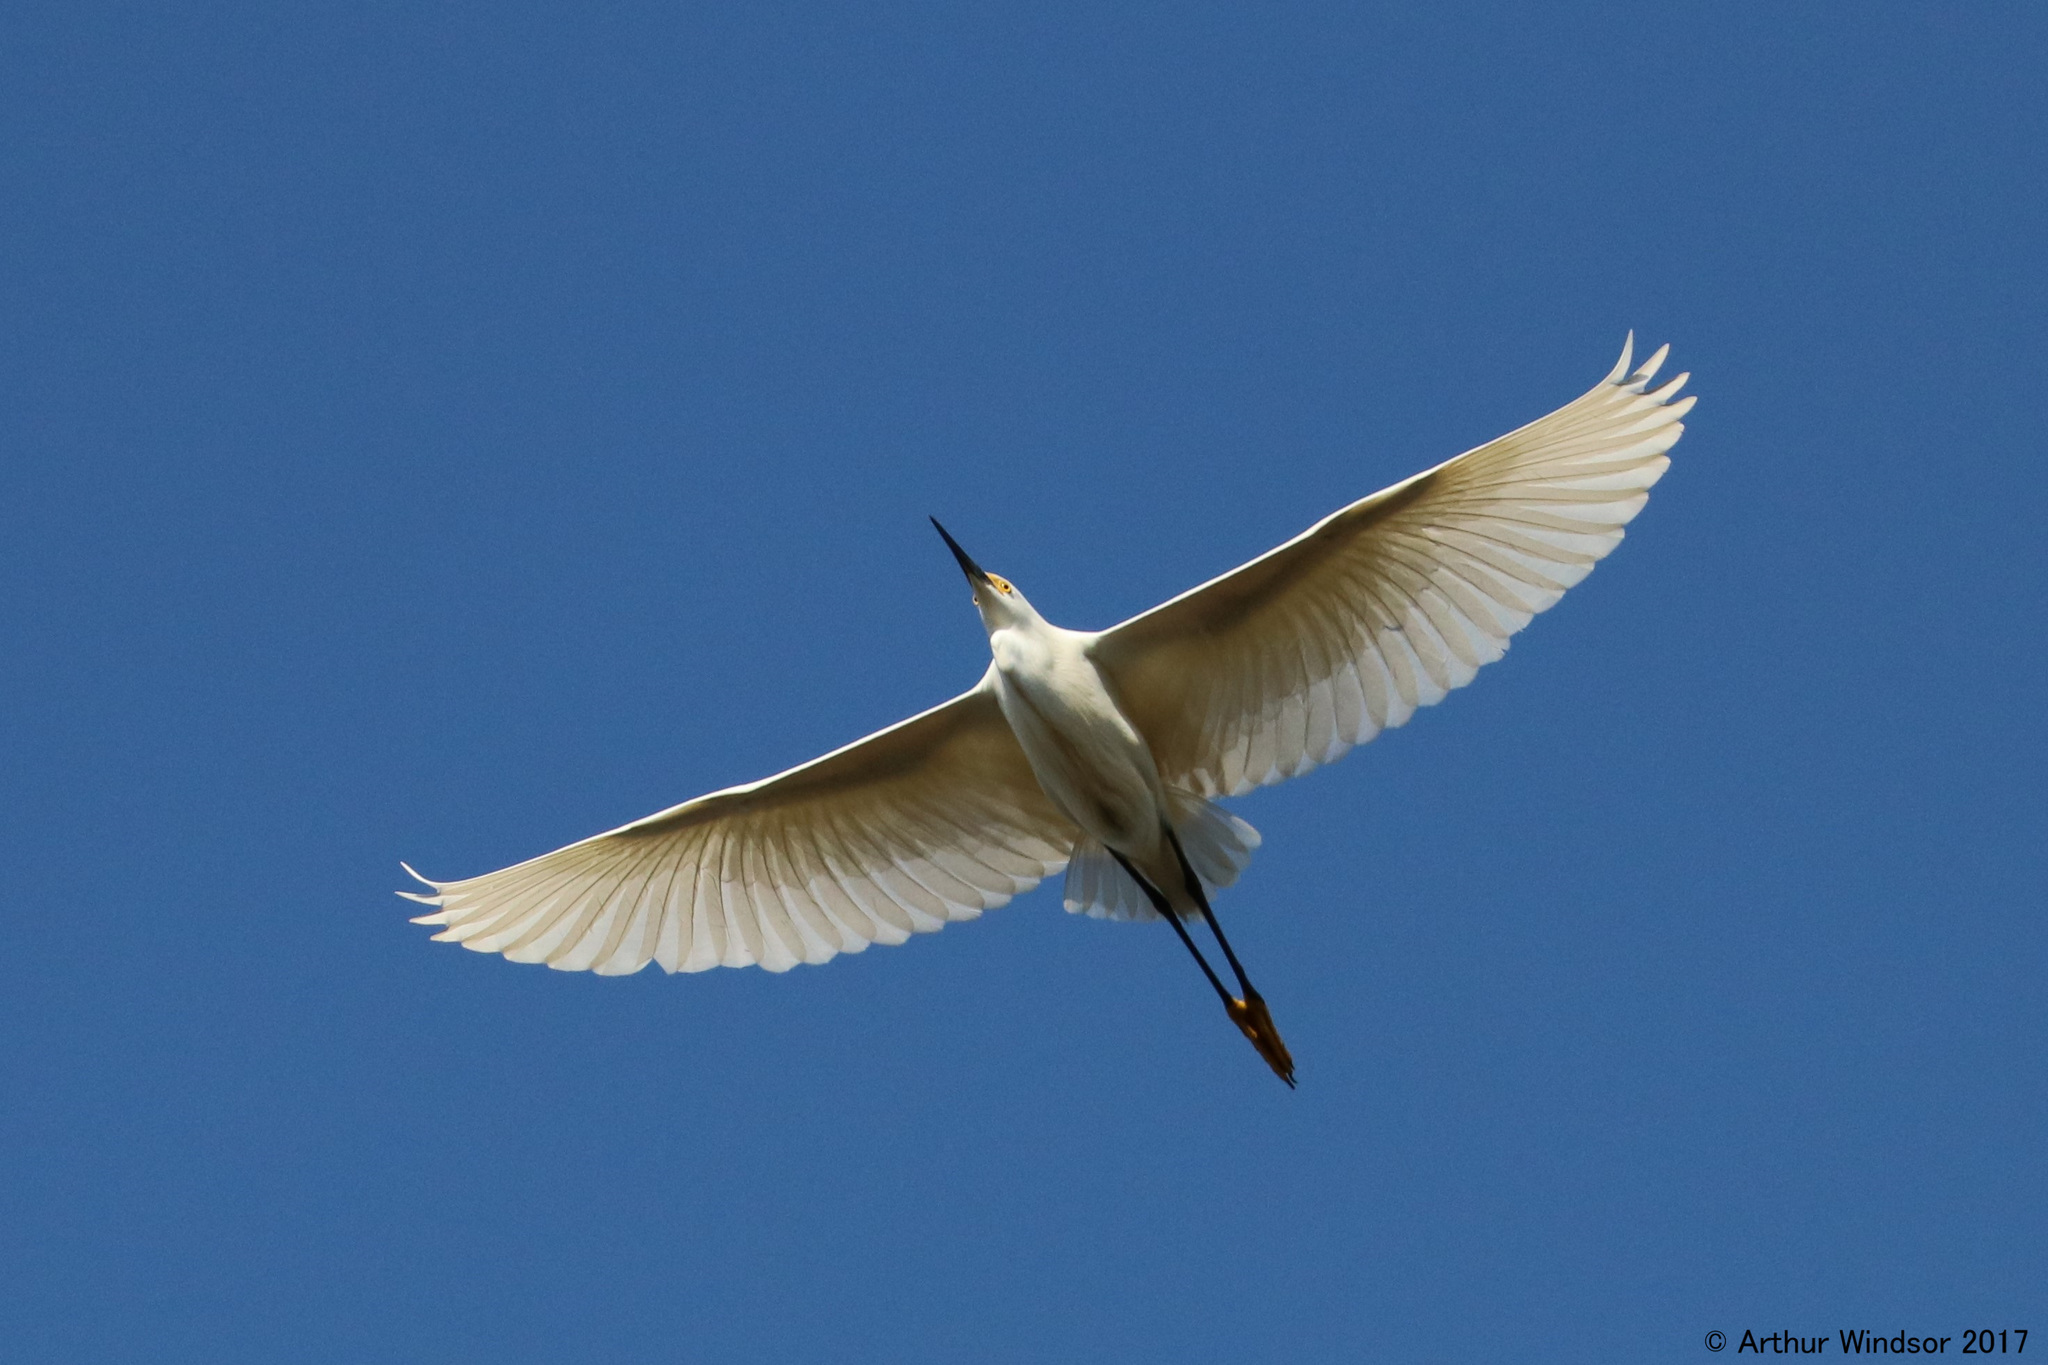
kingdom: Animalia
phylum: Chordata
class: Aves
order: Pelecaniformes
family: Ardeidae
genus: Egretta
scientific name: Egretta thula
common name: Snowy egret
